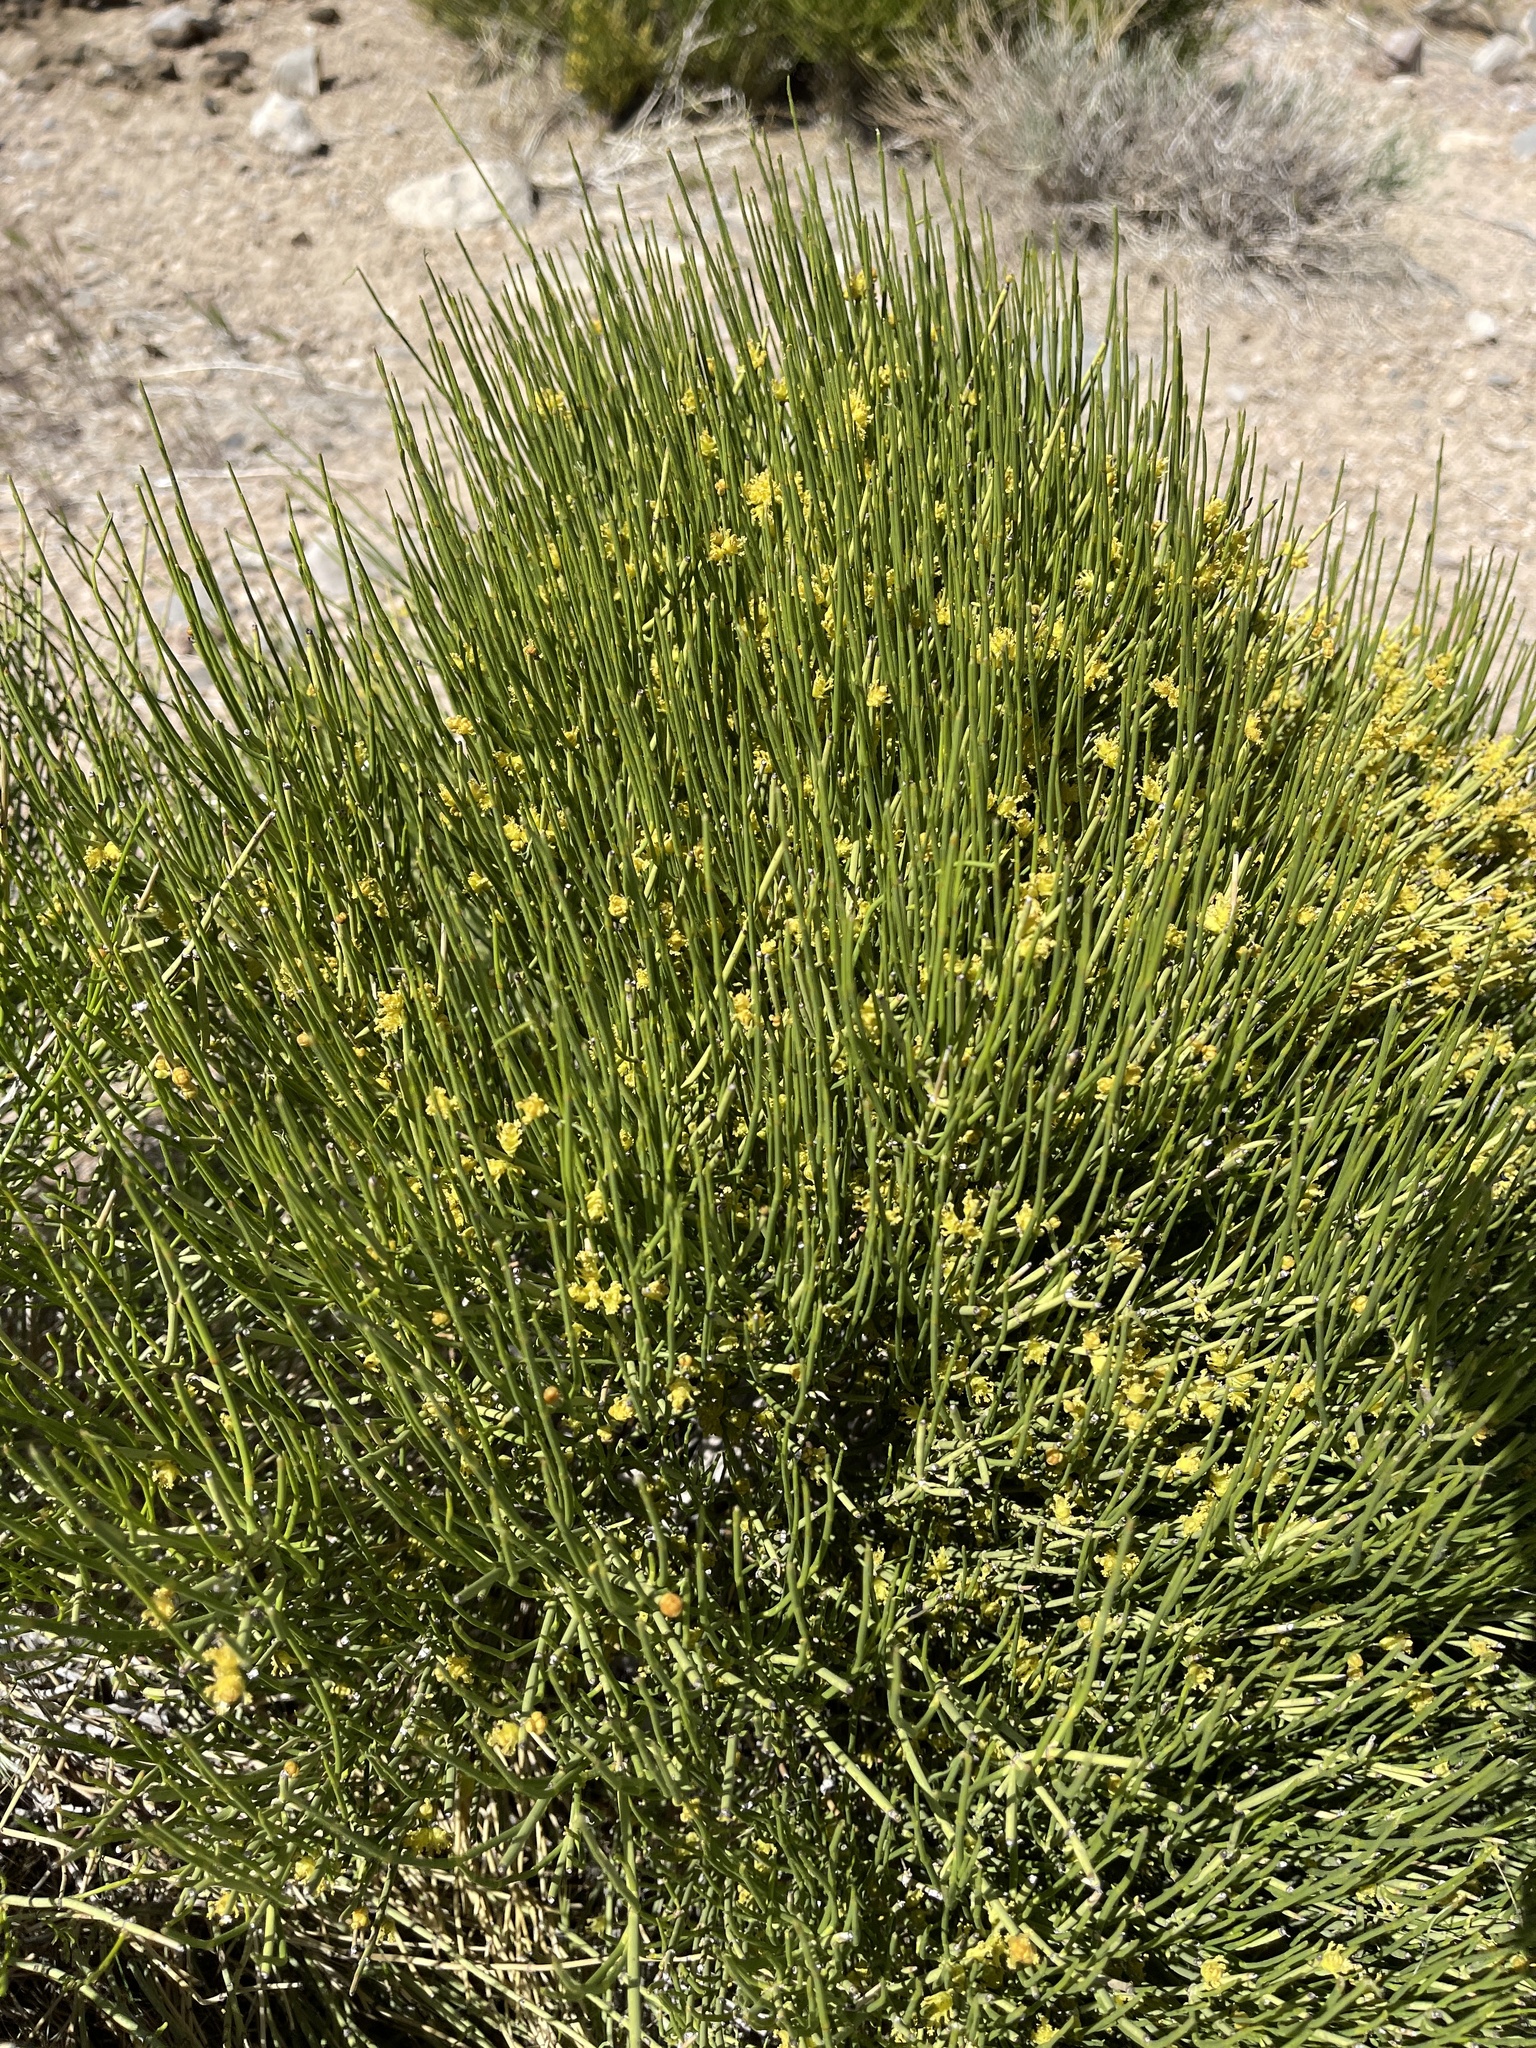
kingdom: Plantae
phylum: Tracheophyta
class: Gnetopsida
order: Ephedrales
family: Ephedraceae
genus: Ephedra
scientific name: Ephedra viridis
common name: Green ephedra
